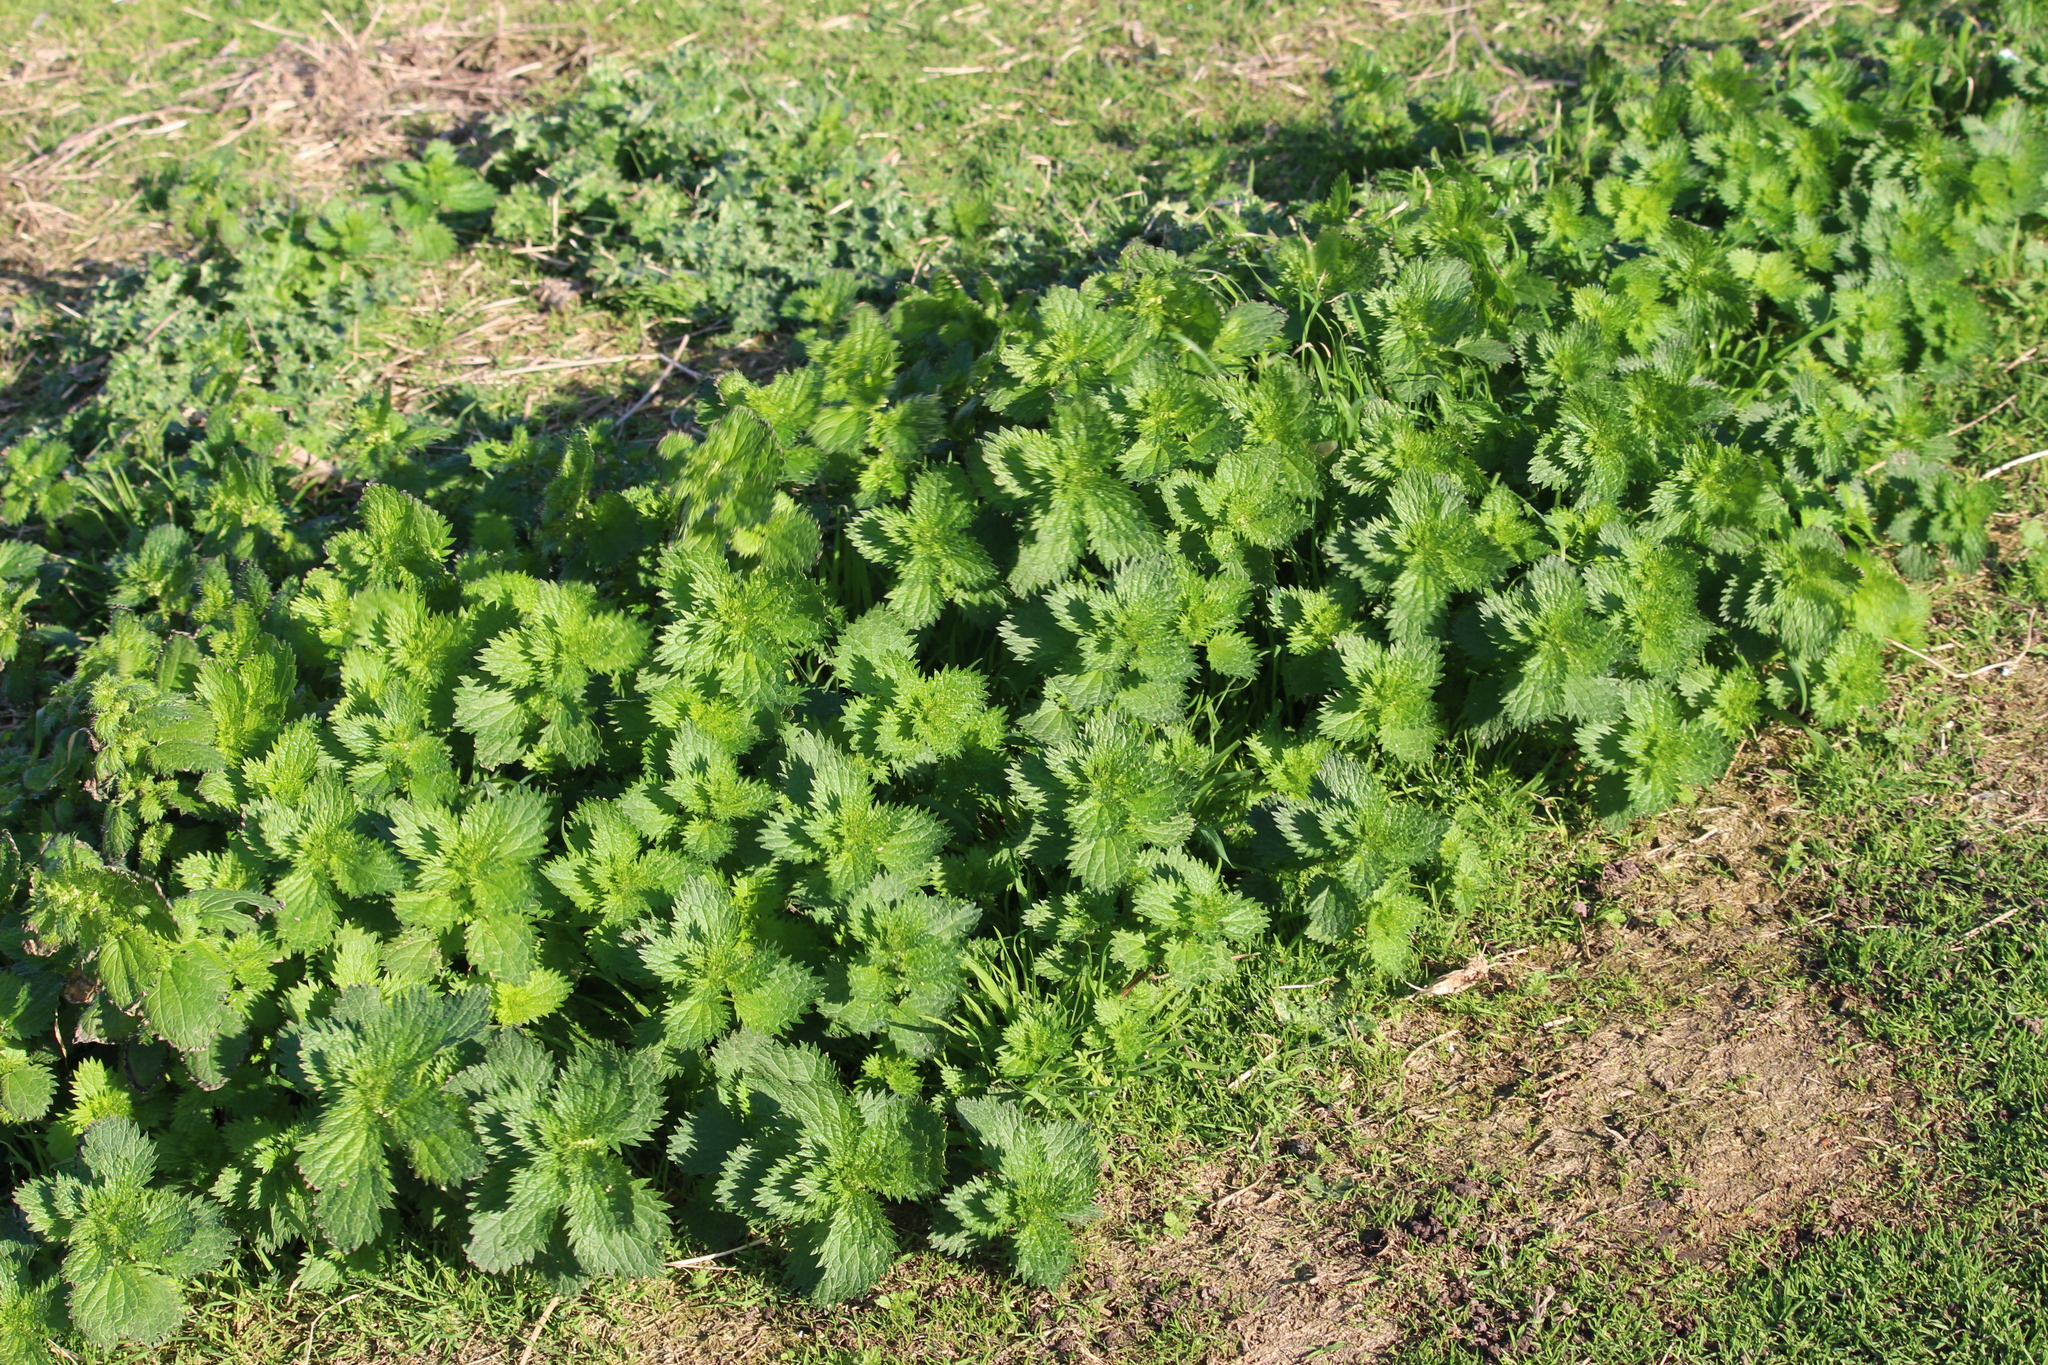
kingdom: Plantae
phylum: Tracheophyta
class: Magnoliopsida
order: Rosales
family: Urticaceae
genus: Urtica
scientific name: Urtica urens
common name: Dwarf nettle
